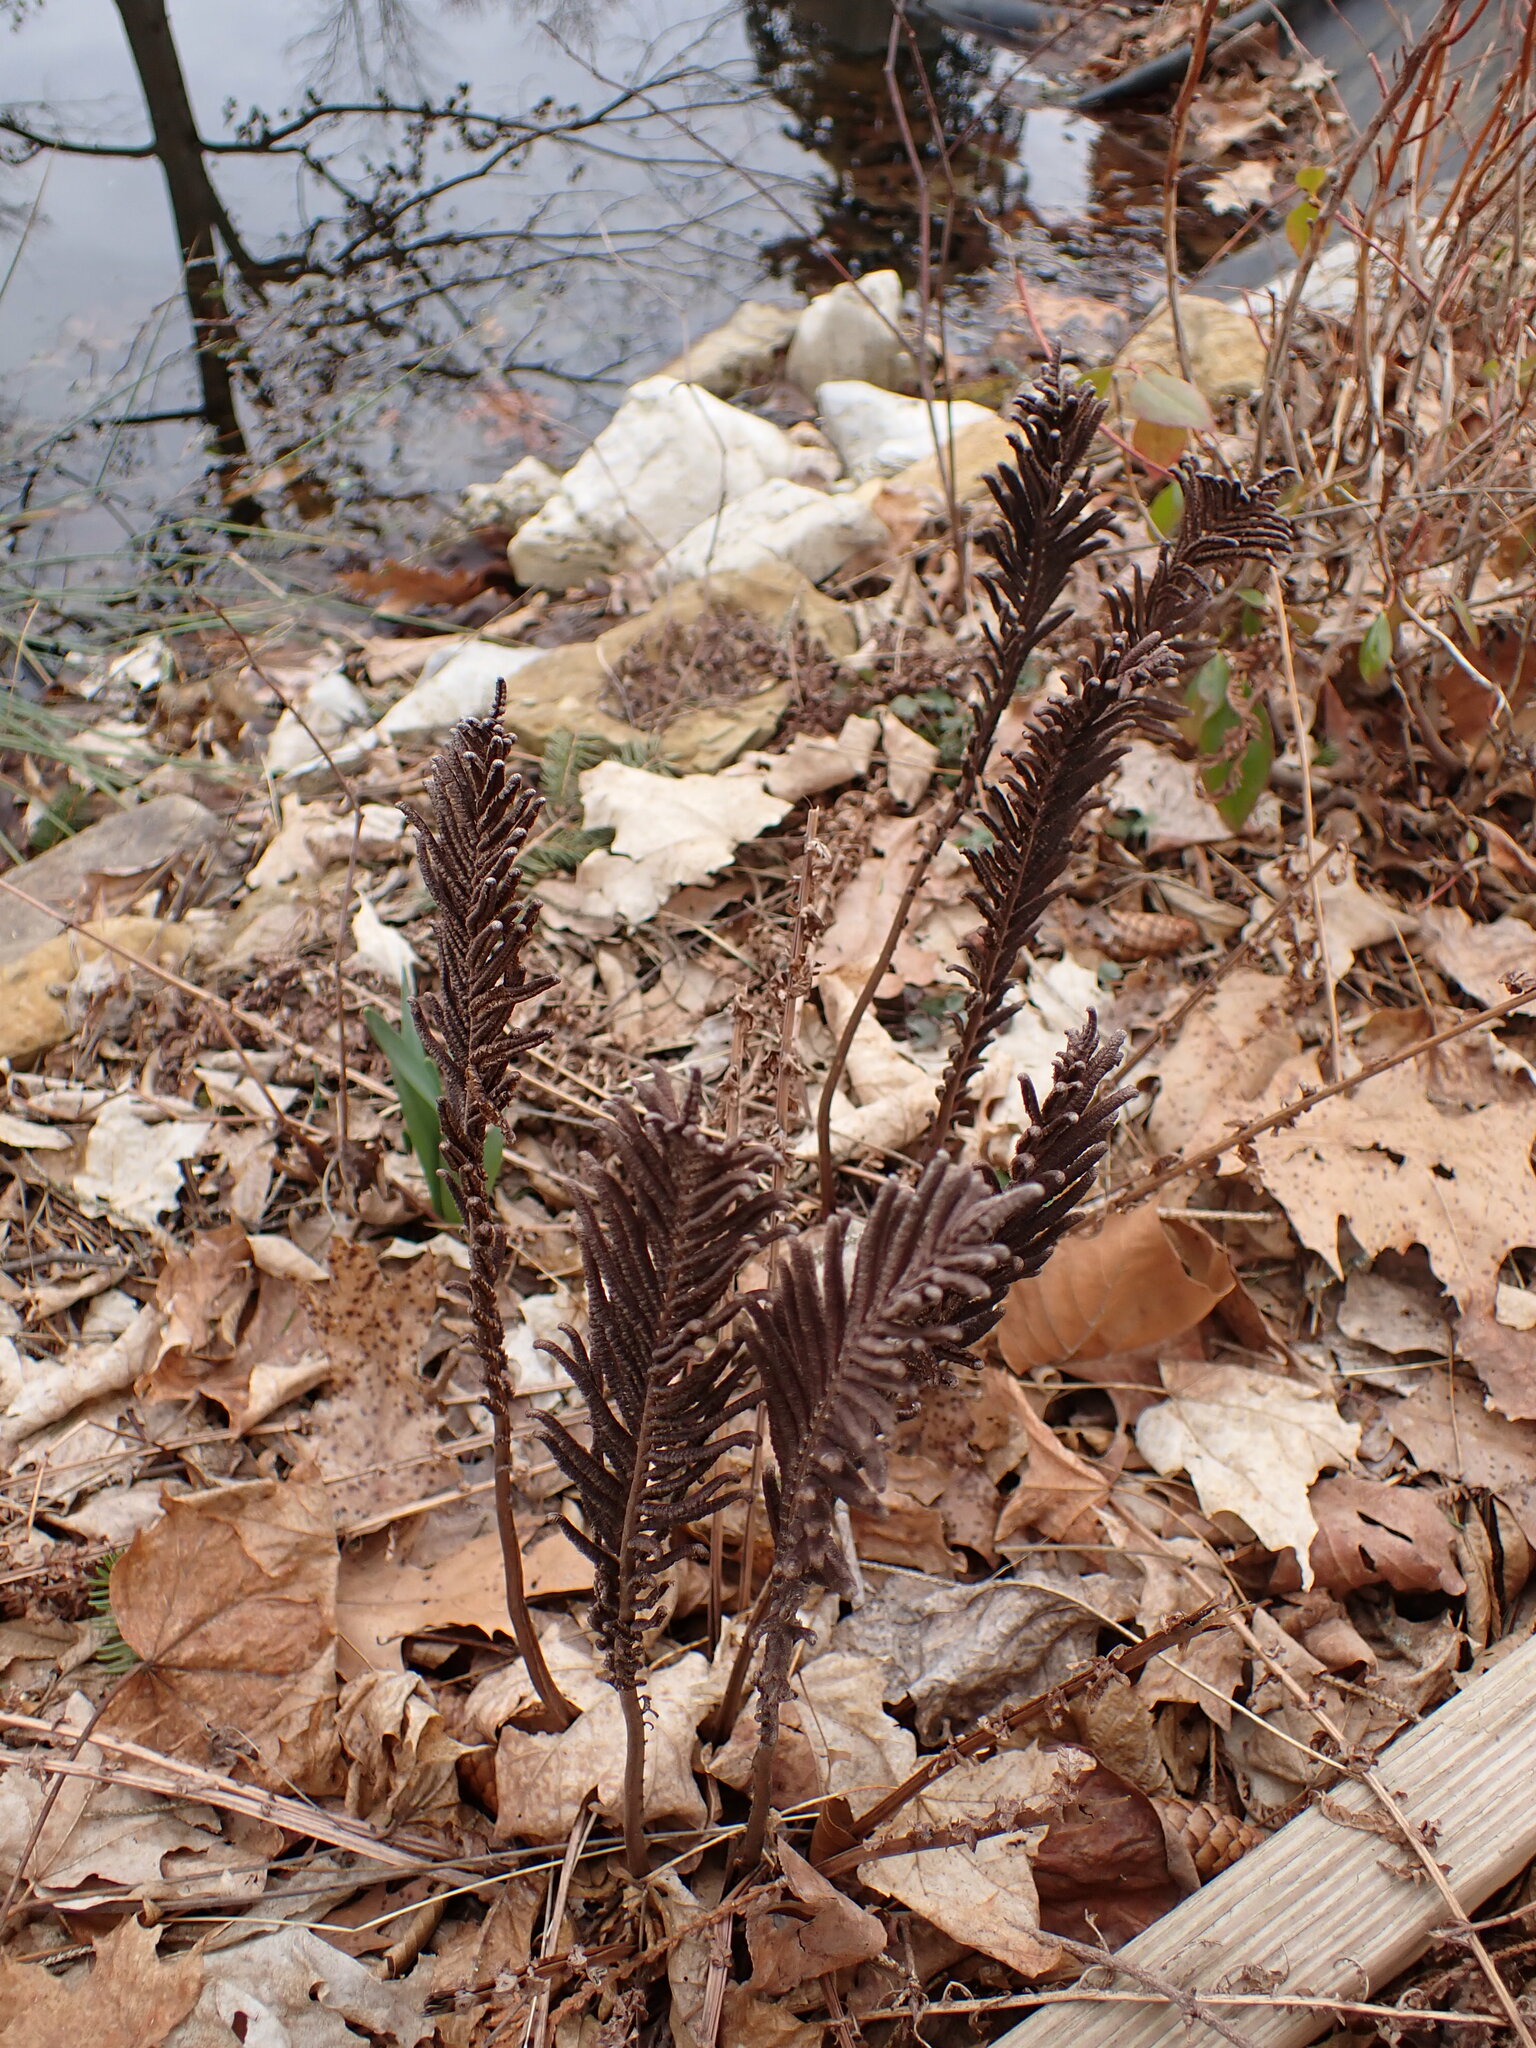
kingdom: Plantae
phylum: Tracheophyta
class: Polypodiopsida
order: Polypodiales
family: Onocleaceae
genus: Matteuccia
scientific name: Matteuccia struthiopteris
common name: Ostrich fern
